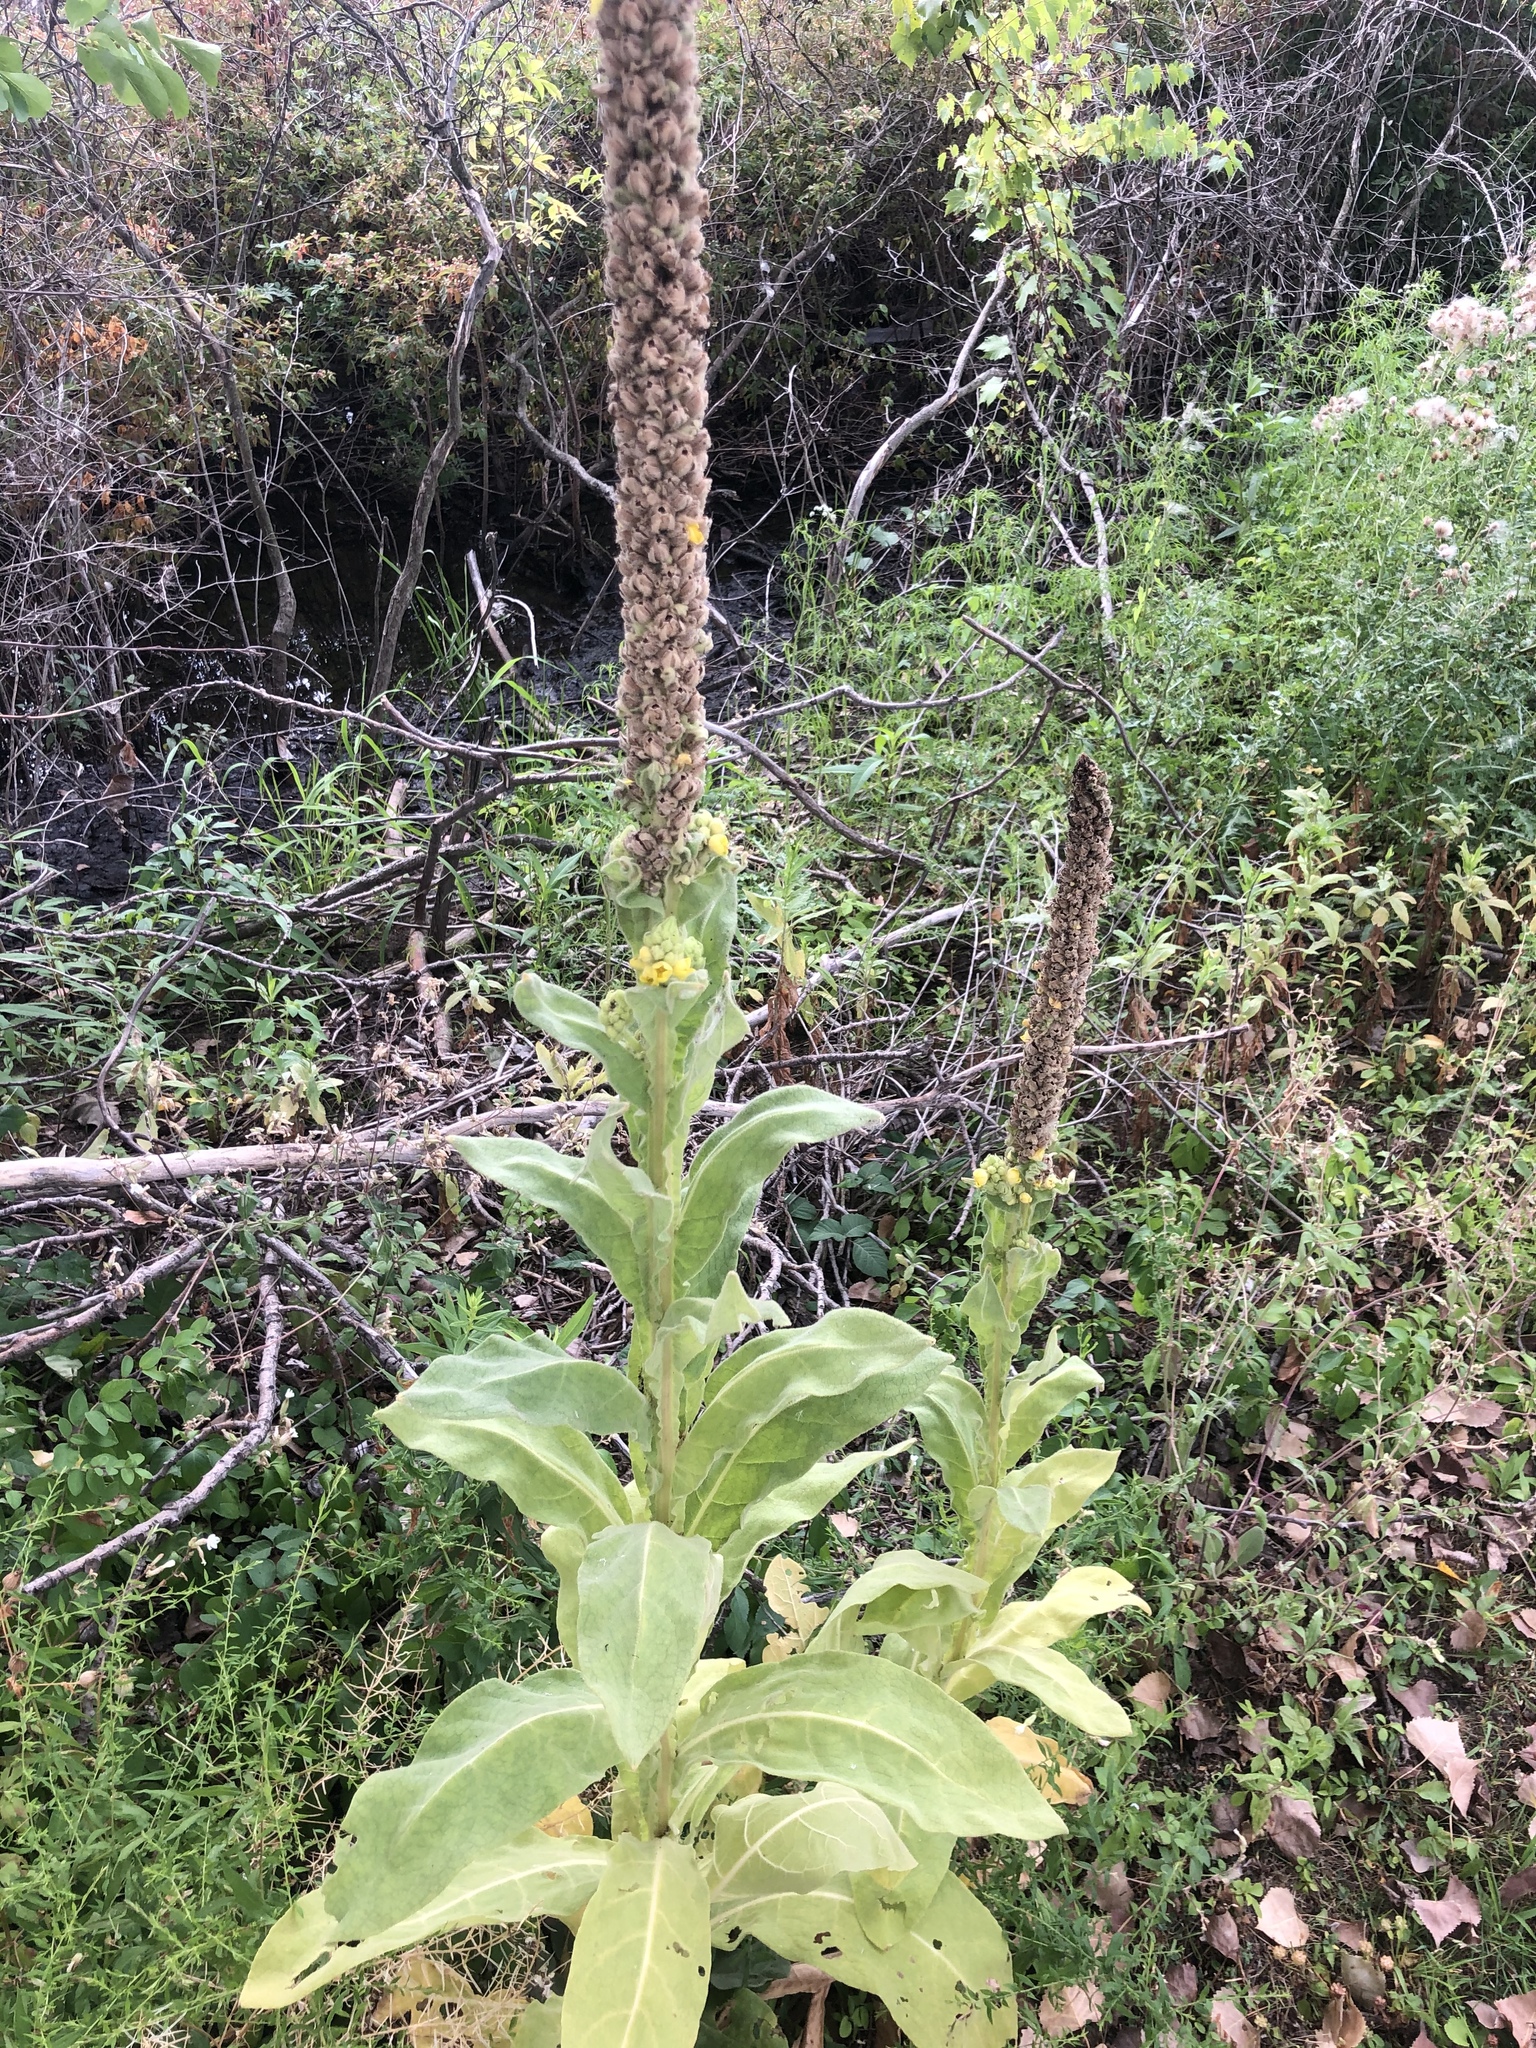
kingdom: Plantae
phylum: Tracheophyta
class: Magnoliopsida
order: Lamiales
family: Scrophulariaceae
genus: Verbascum
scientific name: Verbascum thapsus
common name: Common mullein
